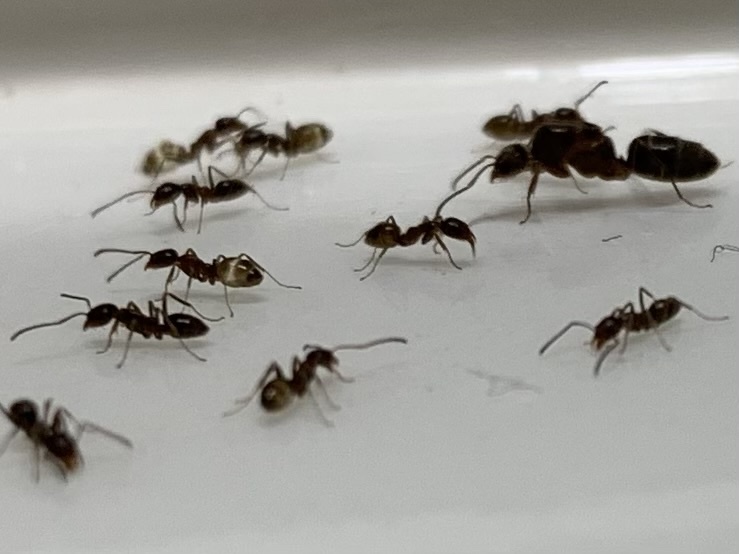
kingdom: Animalia
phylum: Arthropoda
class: Insecta
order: Hymenoptera
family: Formicidae
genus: Linepithema
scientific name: Linepithema humile
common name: Argentine ant
